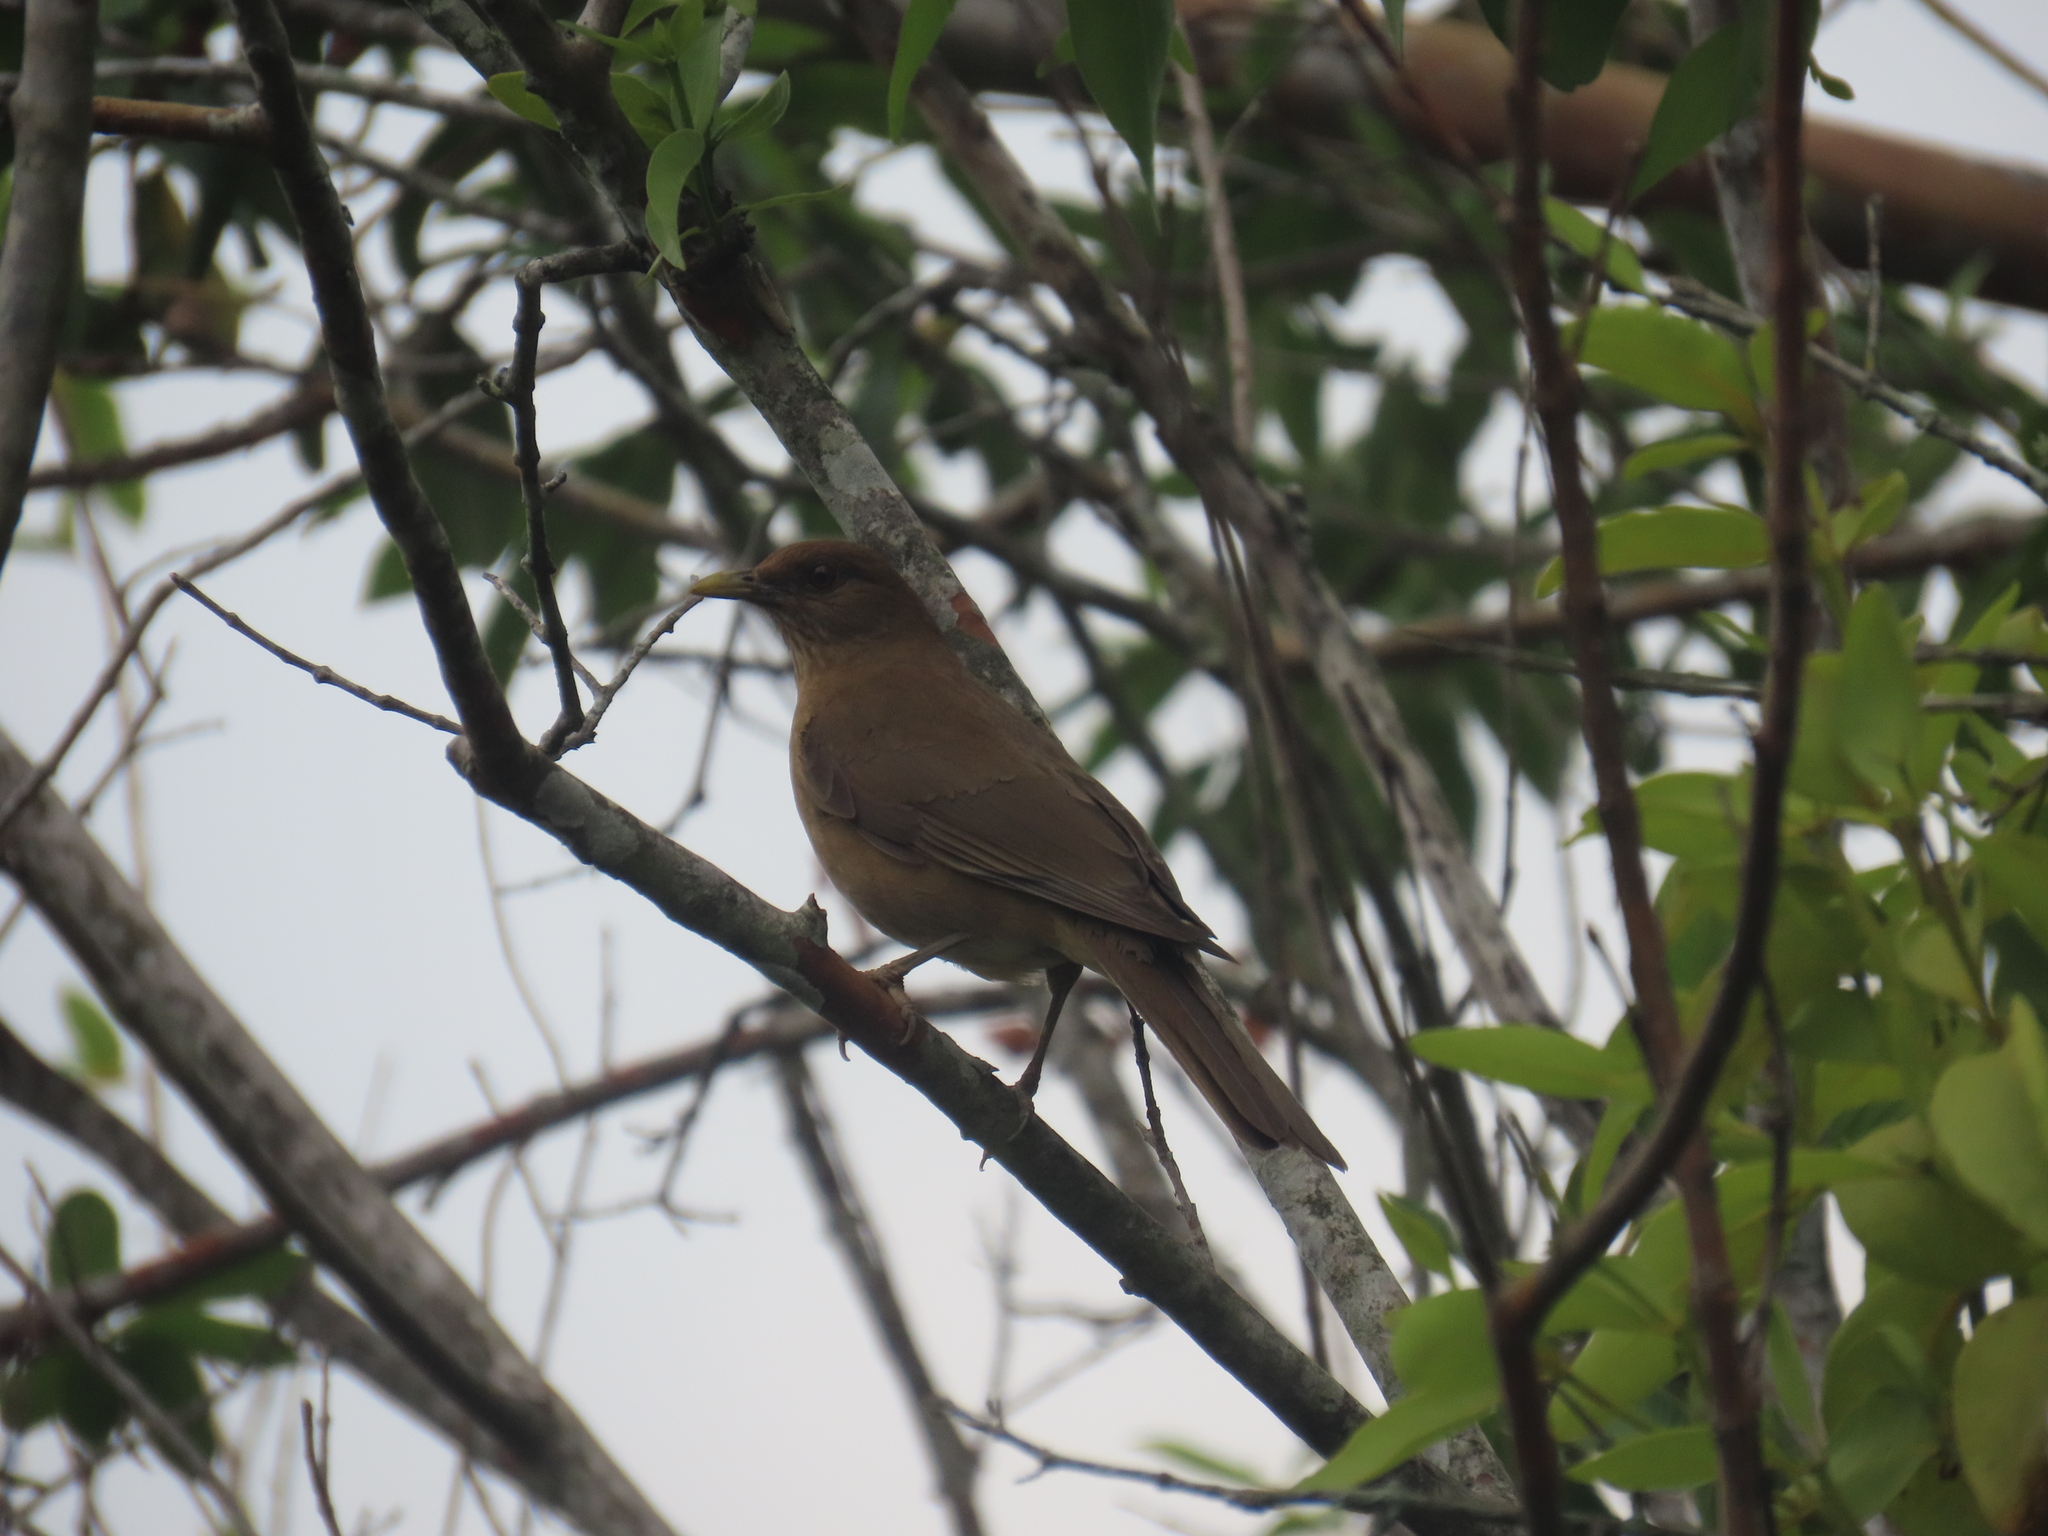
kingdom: Animalia
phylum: Chordata
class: Aves
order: Passeriformes
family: Turdidae
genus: Turdus
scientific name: Turdus grayi
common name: Clay-colored thrush
